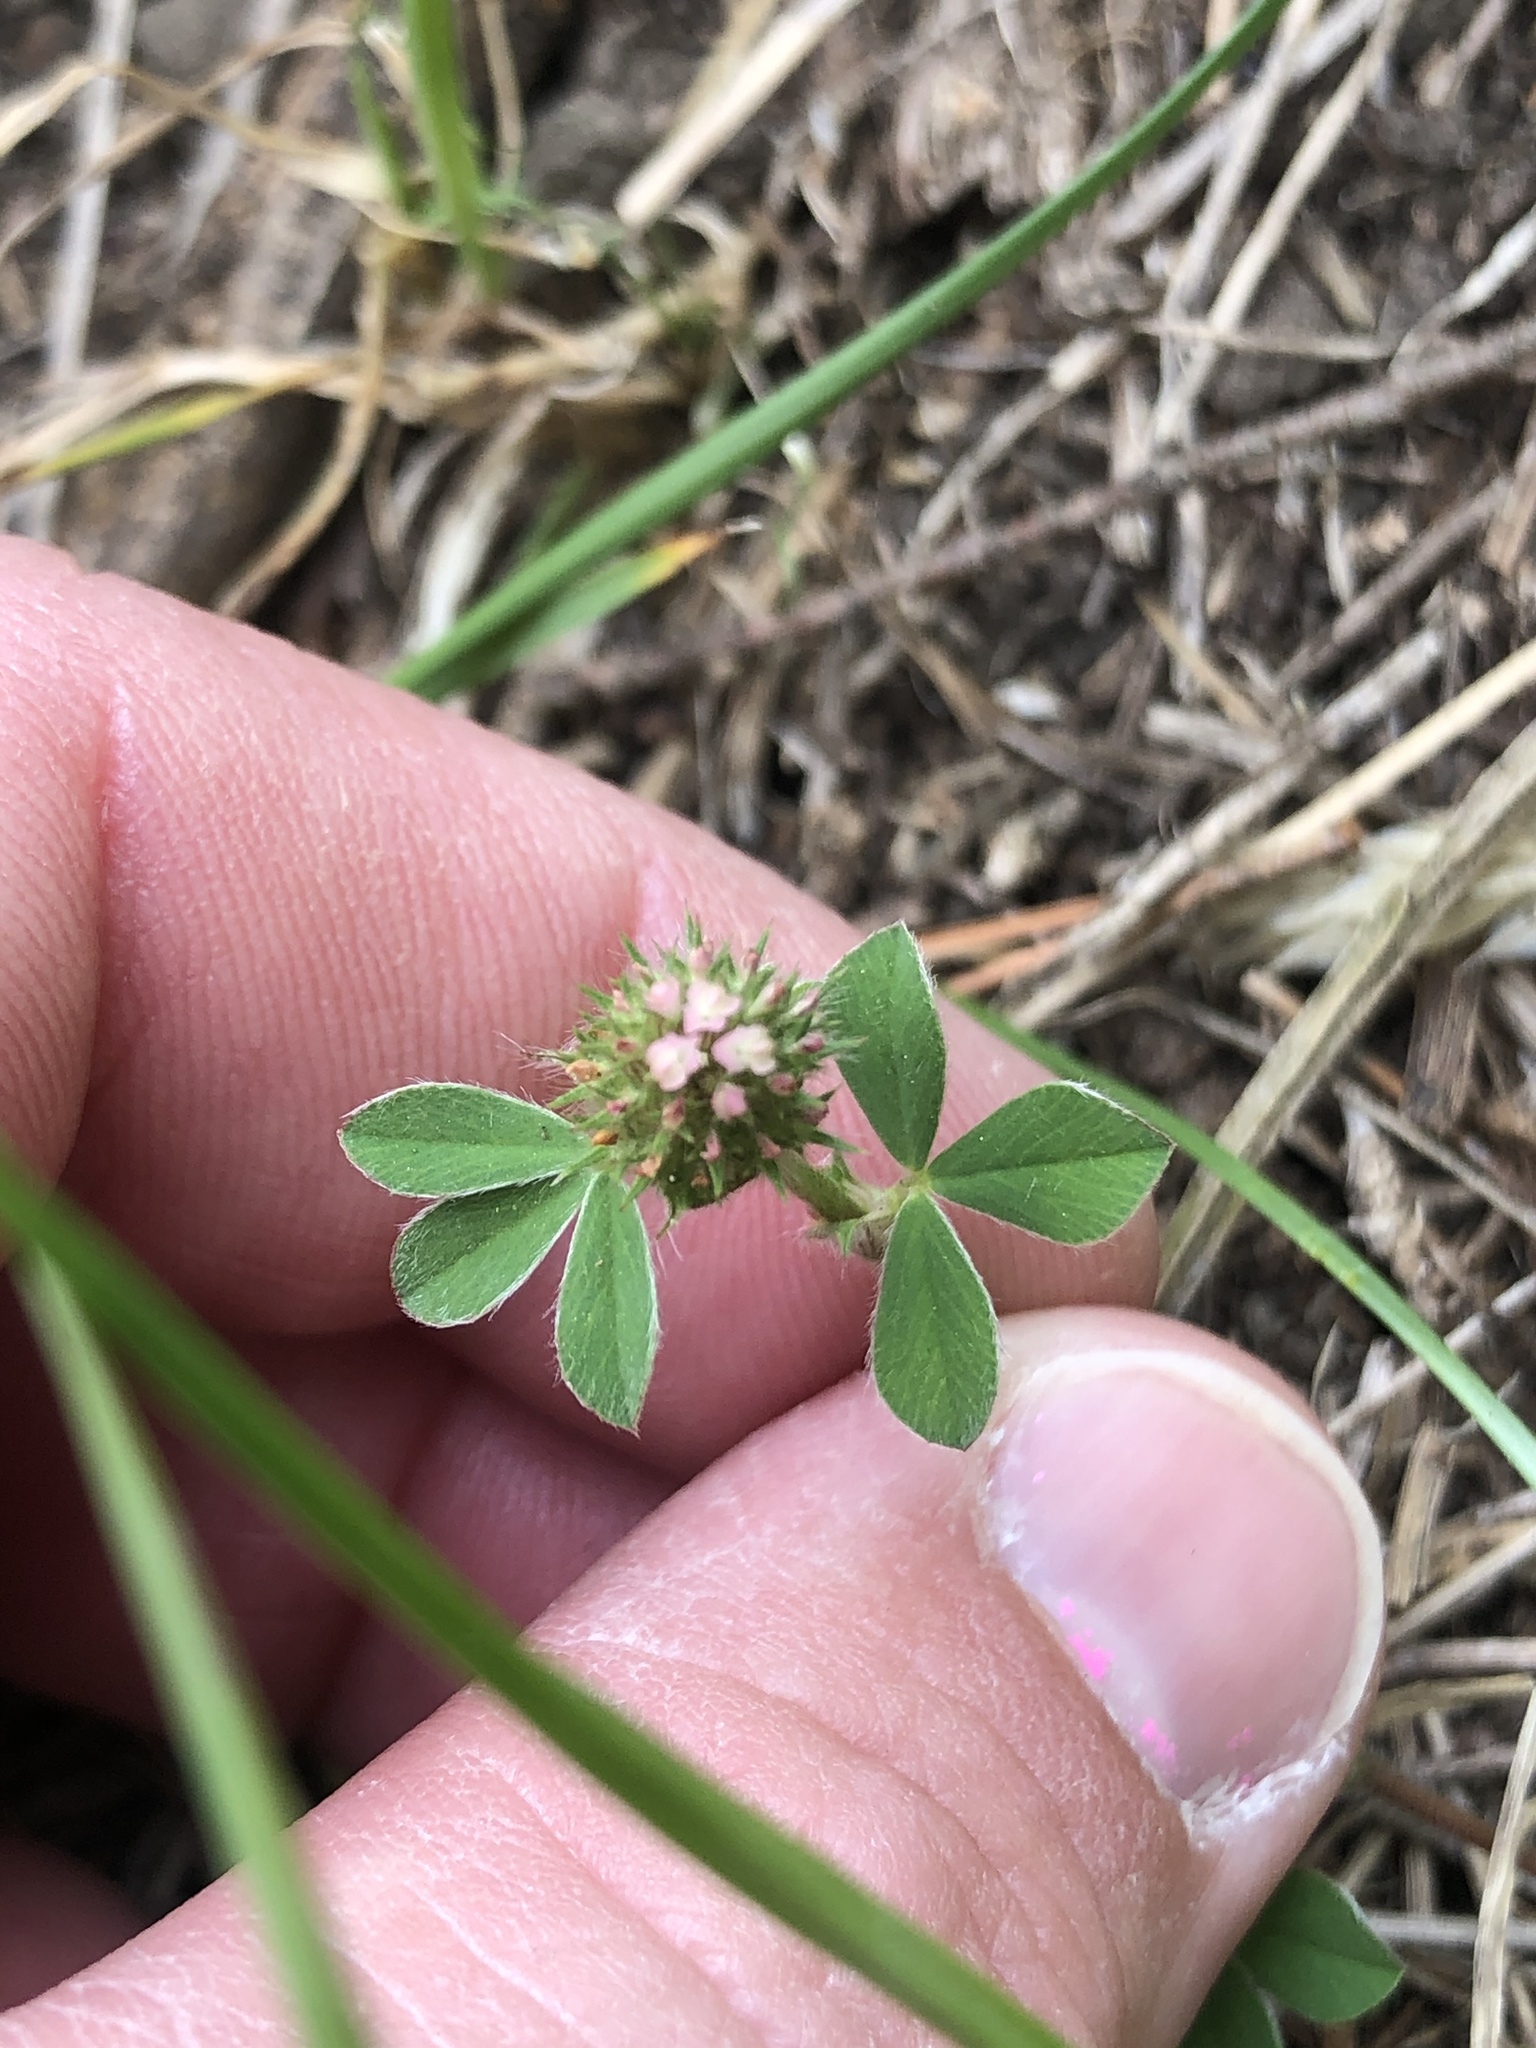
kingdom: Plantae
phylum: Tracheophyta
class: Magnoliopsida
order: Fabales
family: Fabaceae
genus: Trifolium
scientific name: Trifolium striatum
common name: Knotted clover
